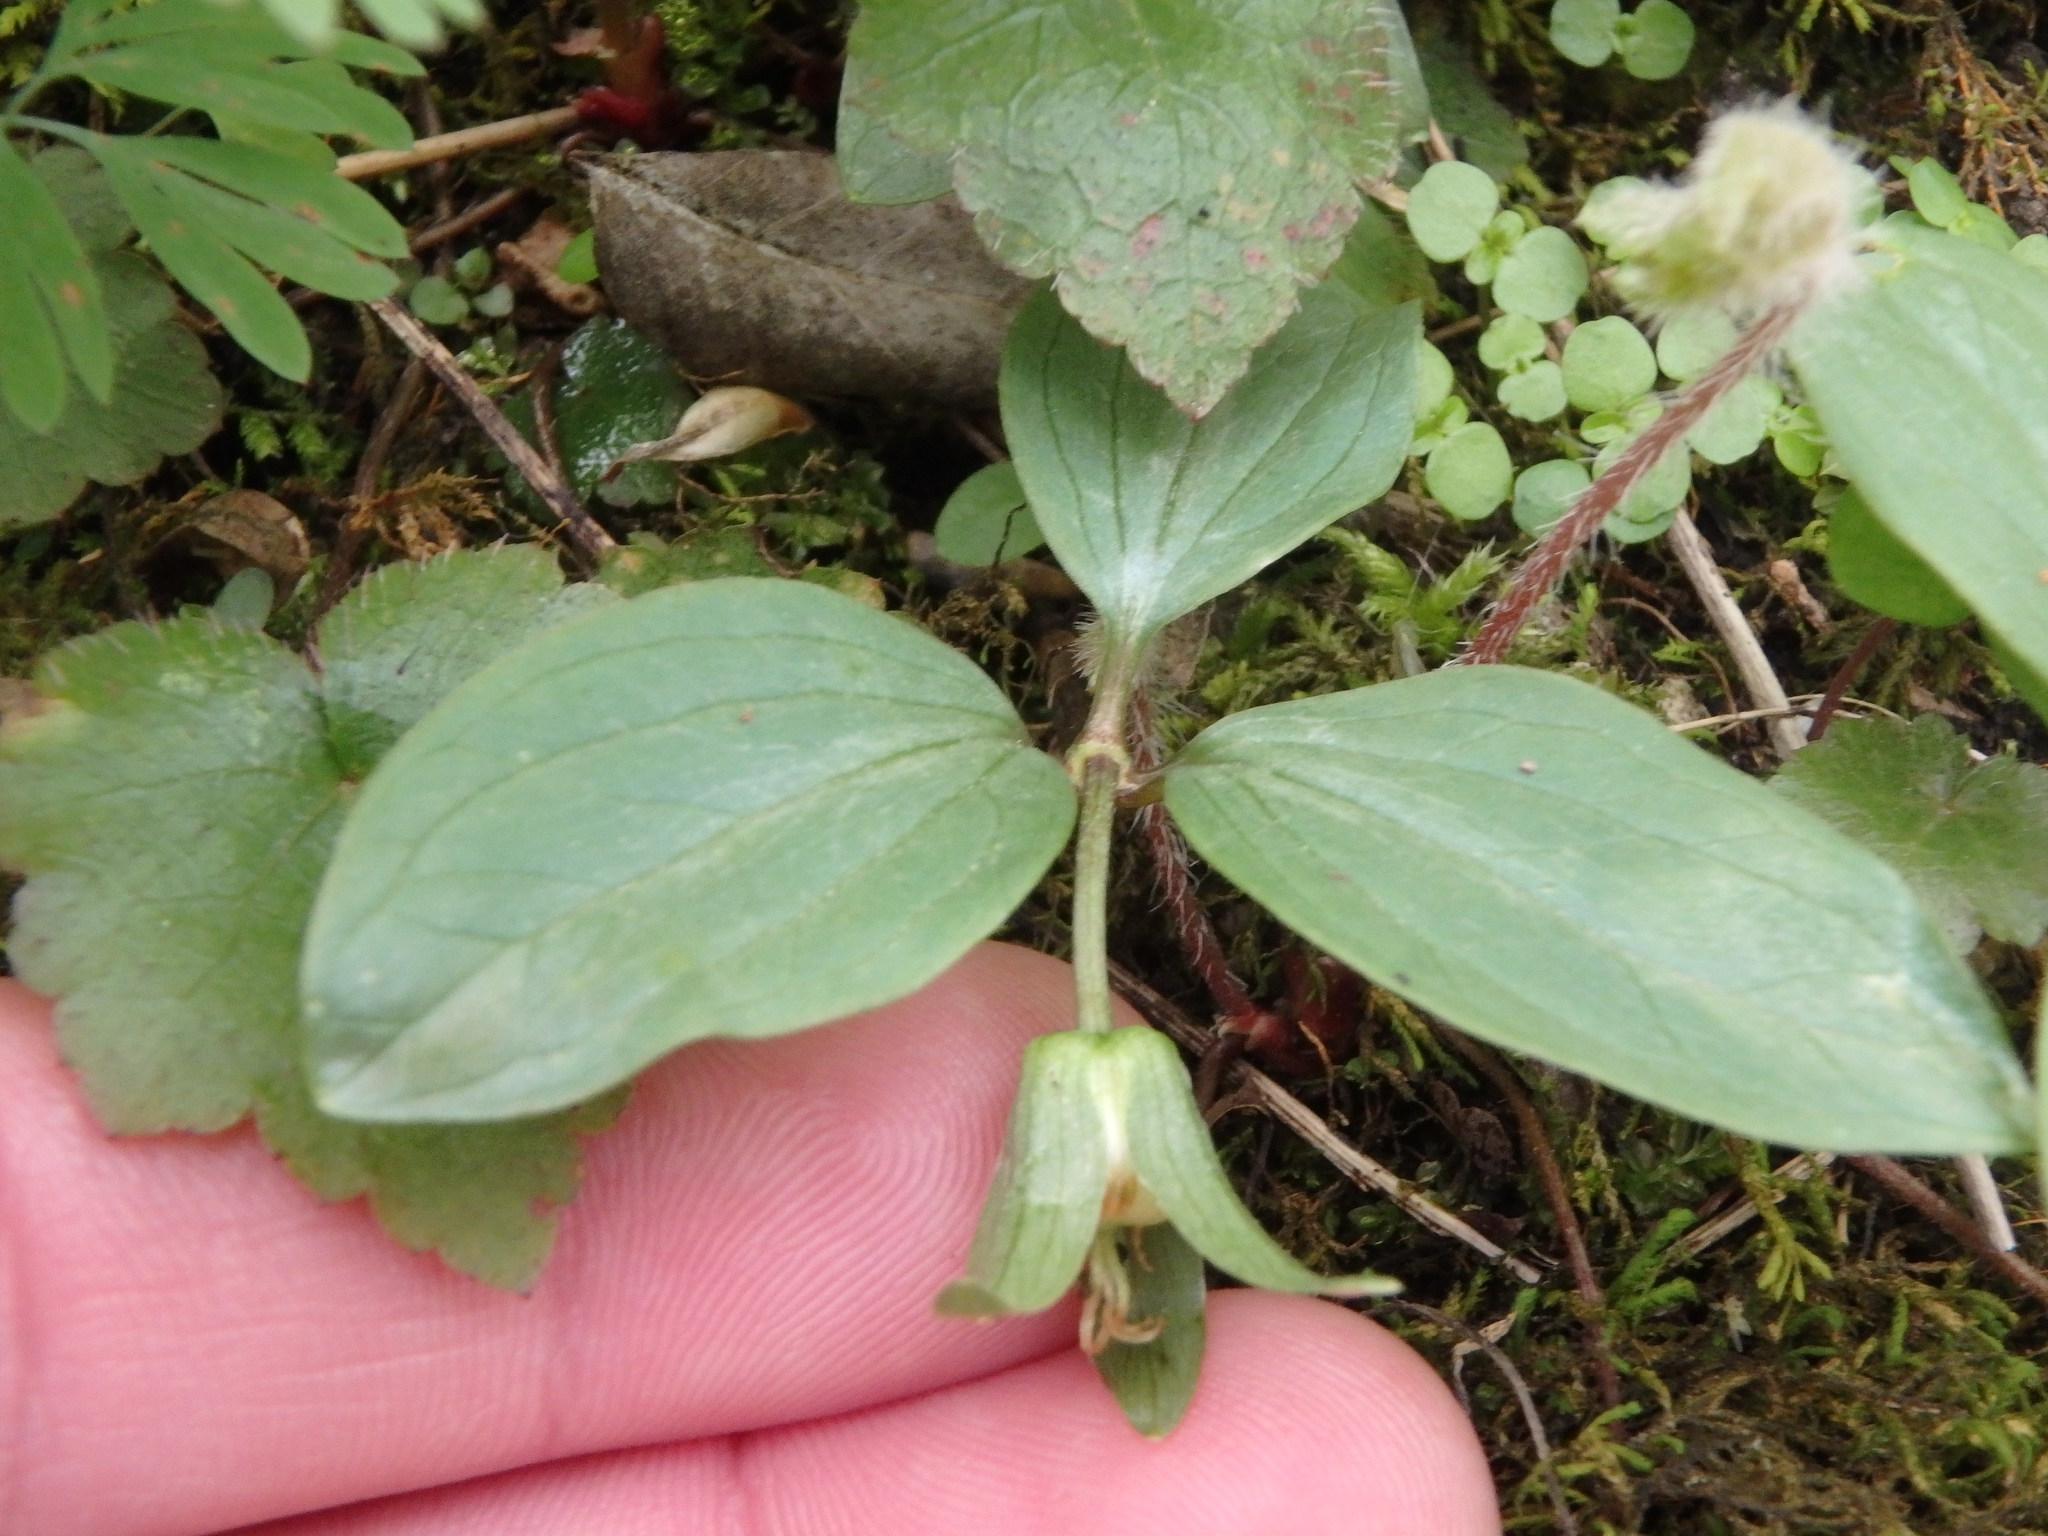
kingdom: Plantae
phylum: Tracheophyta
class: Liliopsida
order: Liliales
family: Melanthiaceae
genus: Trillium
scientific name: Trillium nivale
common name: Dwarf white trillium
